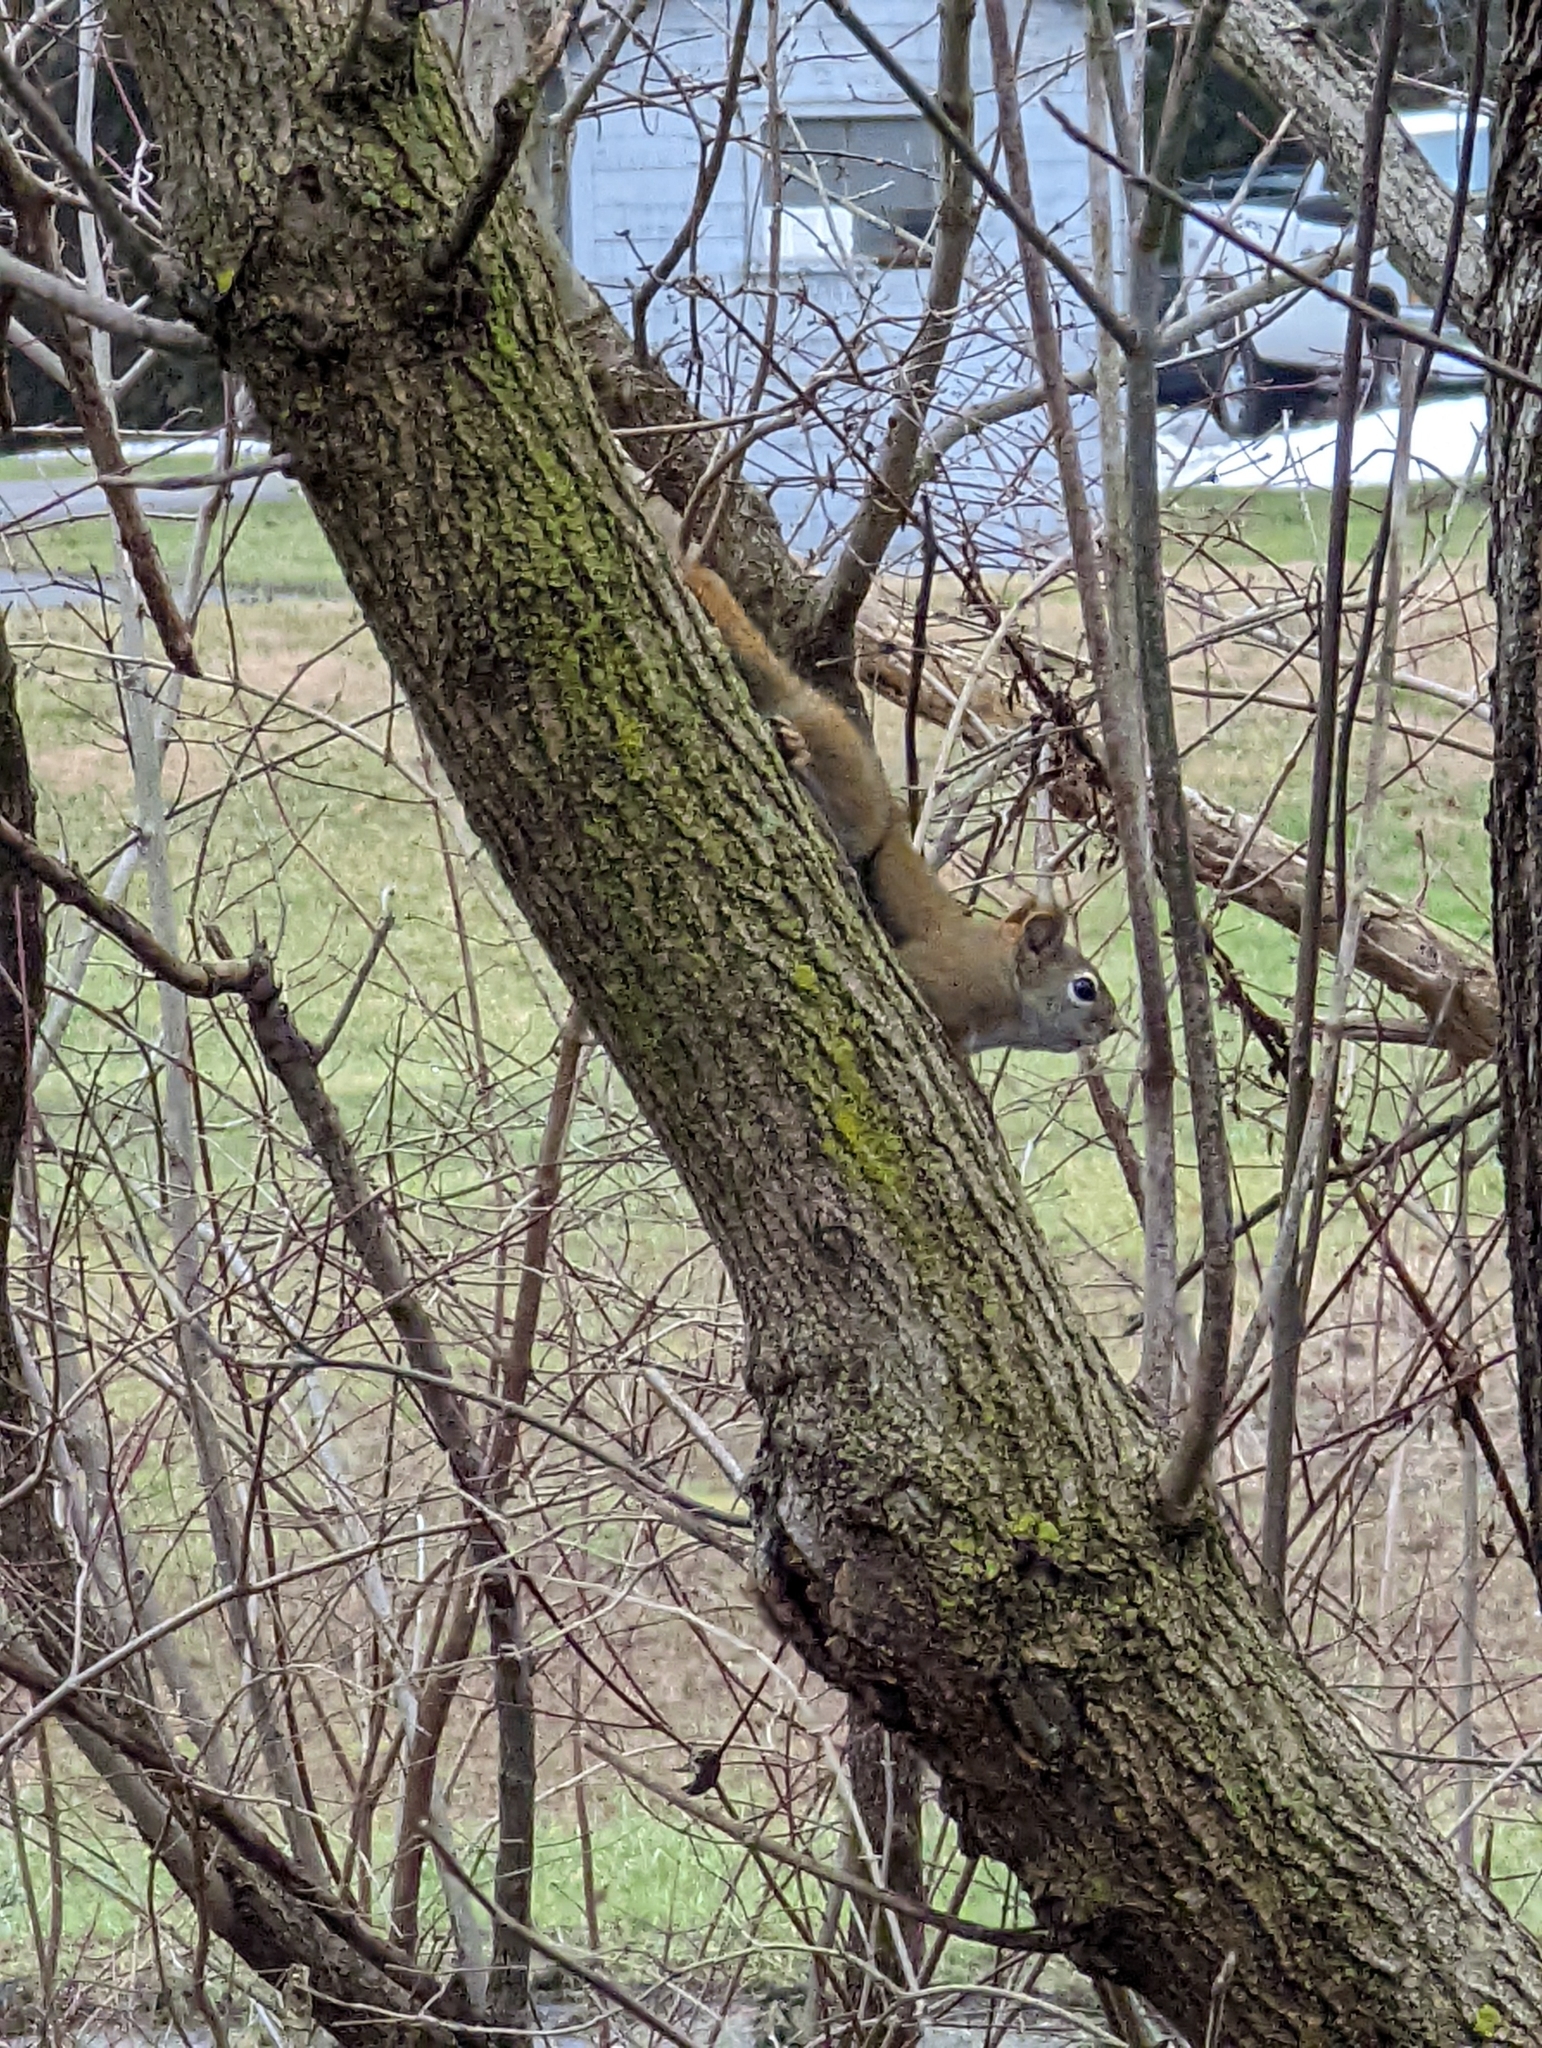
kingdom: Animalia
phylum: Chordata
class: Mammalia
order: Rodentia
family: Sciuridae
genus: Tamiasciurus
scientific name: Tamiasciurus hudsonicus
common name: Red squirrel
